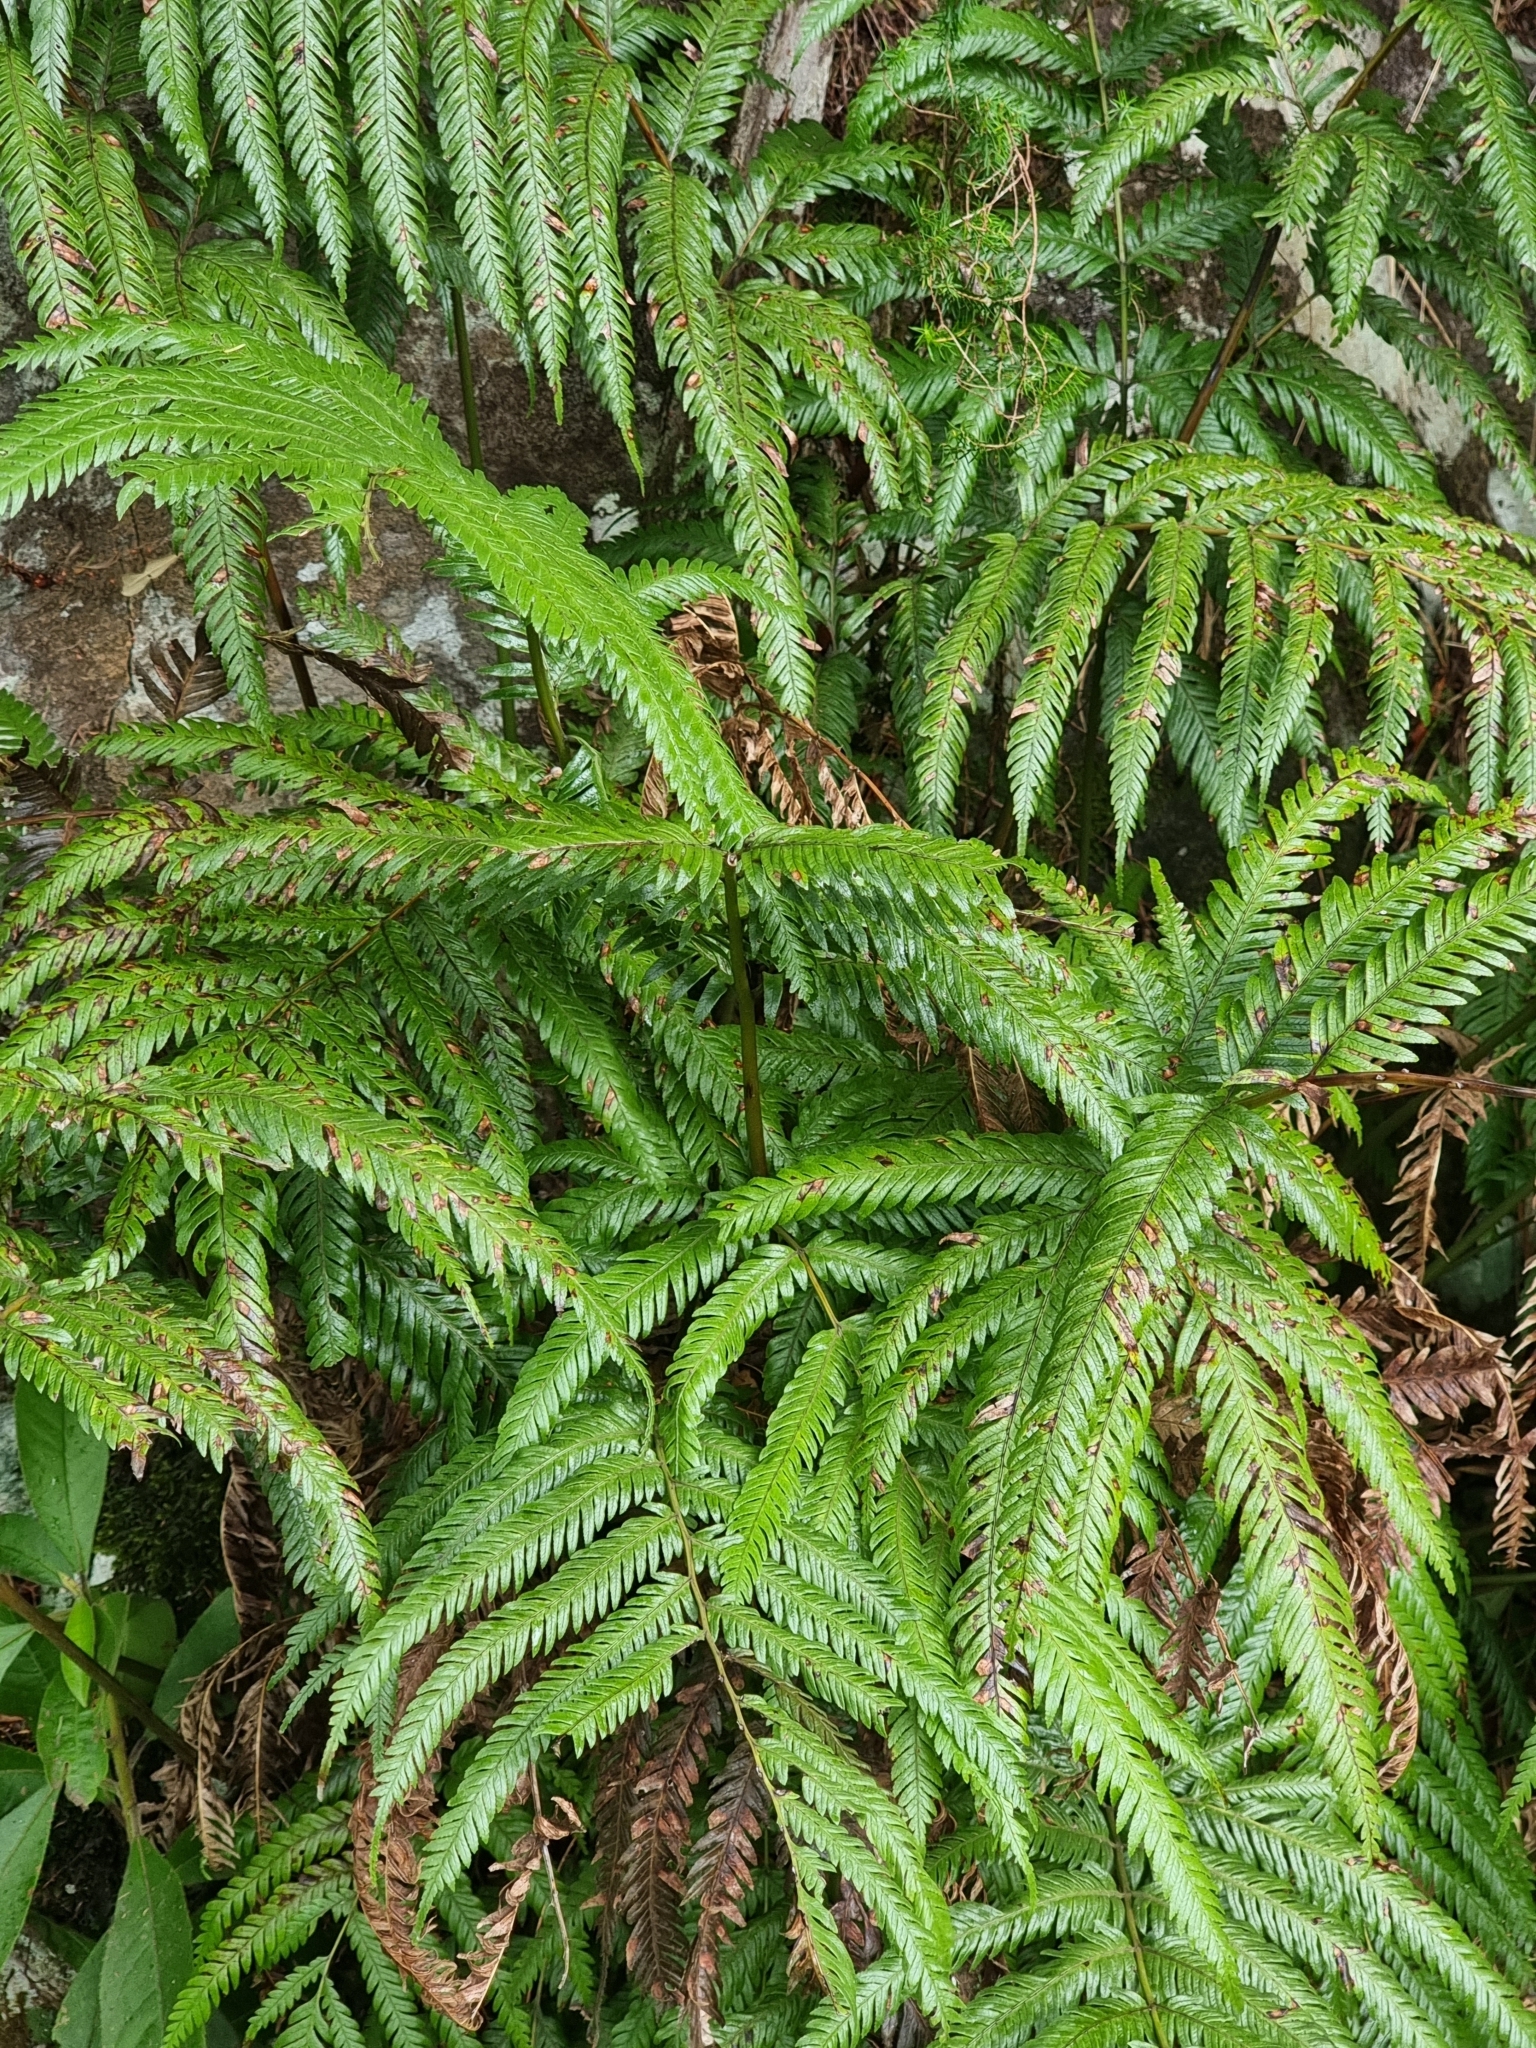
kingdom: Plantae
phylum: Tracheophyta
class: Polypodiopsida
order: Polypodiales
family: Pteridaceae
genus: Pteris
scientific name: Pteris incompleta
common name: Laurisilva brake
